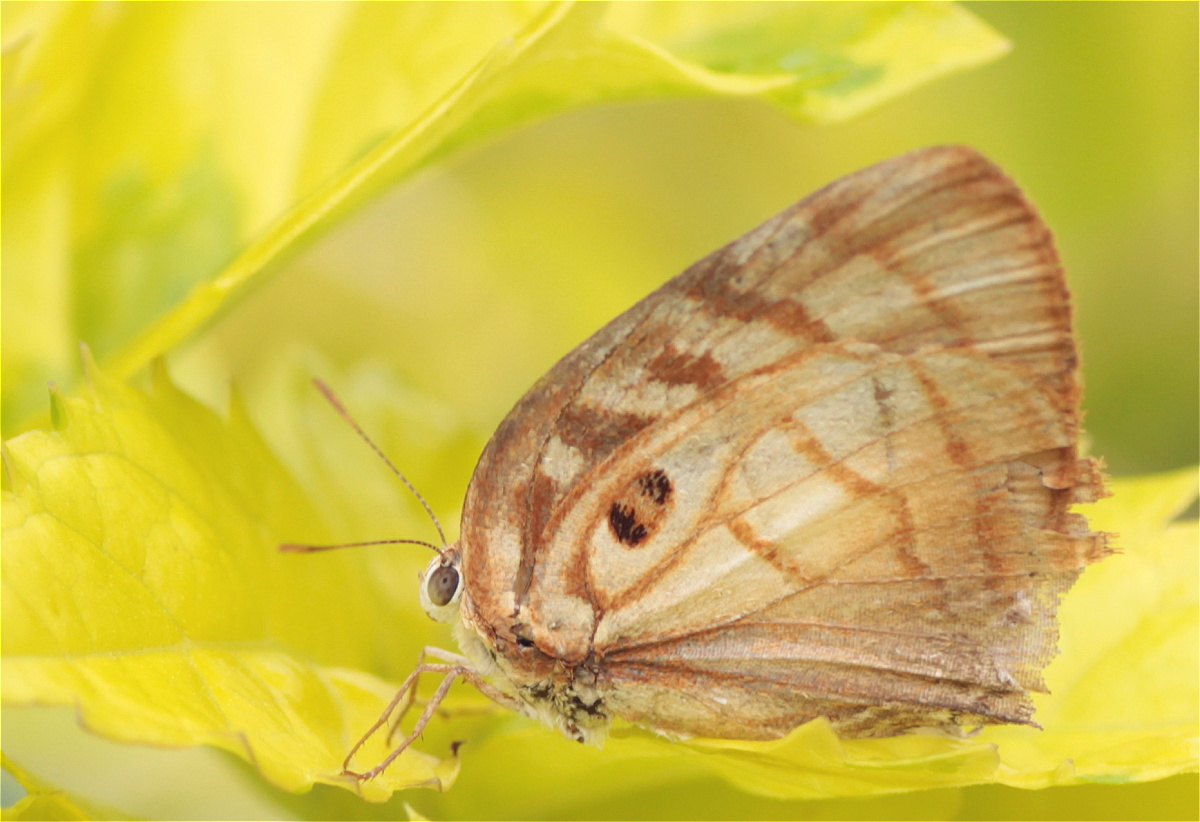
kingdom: Animalia
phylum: Arthropoda
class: Insecta
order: Lepidoptera
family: Lycaenidae
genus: Rekoa
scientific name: Rekoa meton
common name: Meton hairstreak
